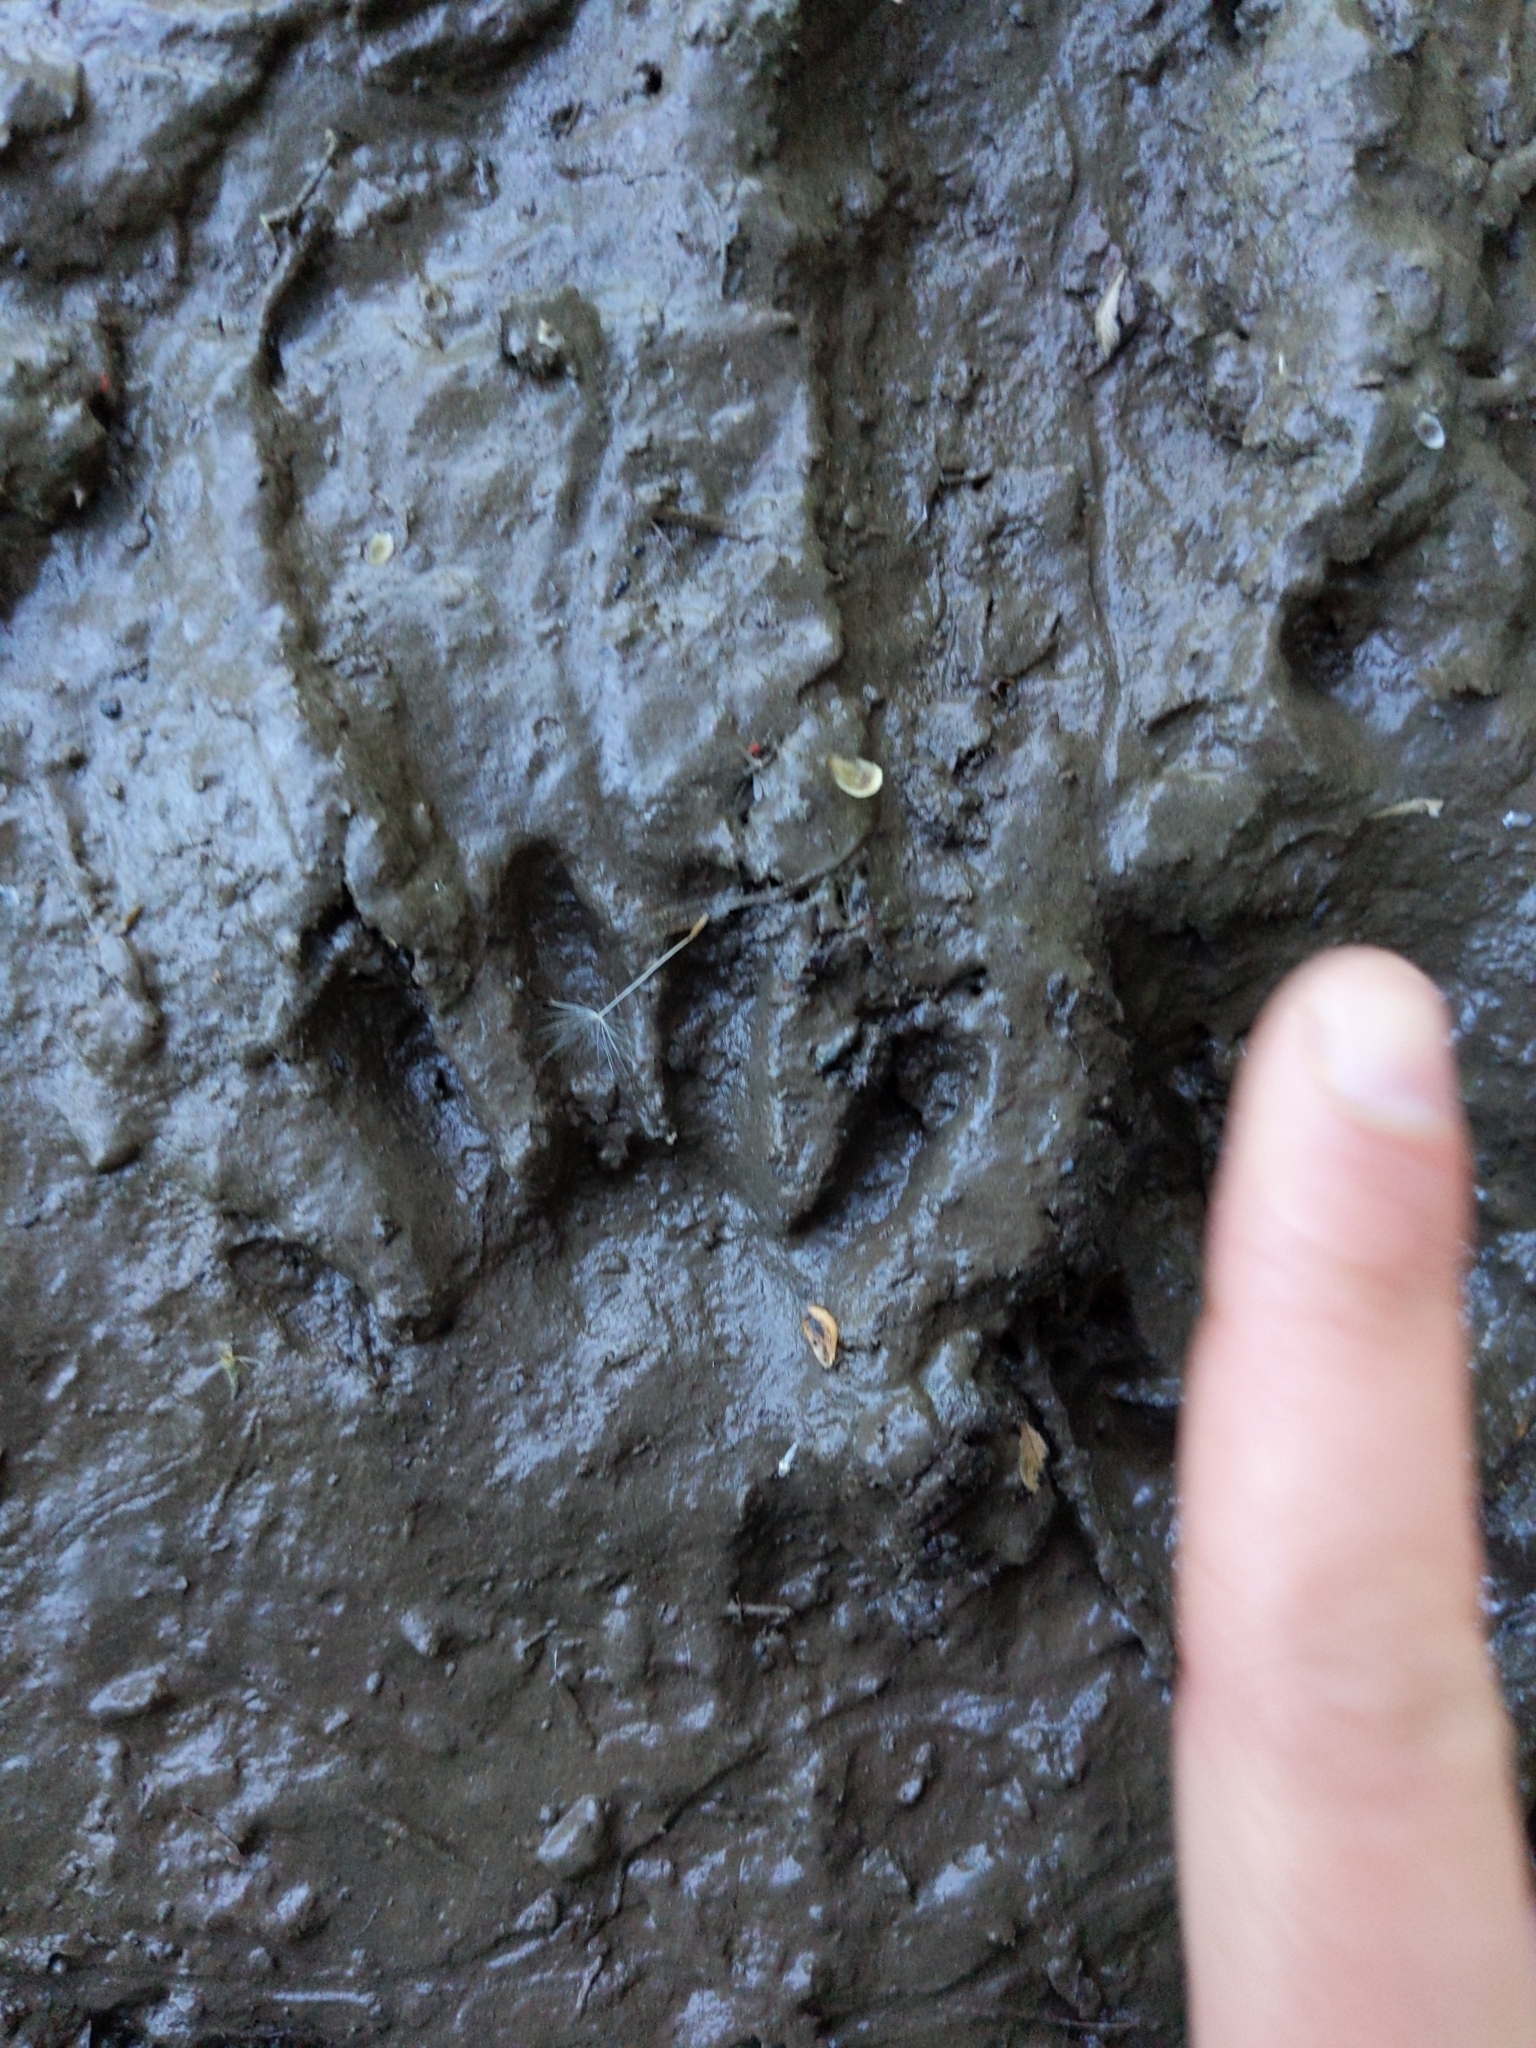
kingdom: Animalia
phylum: Chordata
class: Mammalia
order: Carnivora
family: Procyonidae
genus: Procyon
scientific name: Procyon lotor
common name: Raccoon
